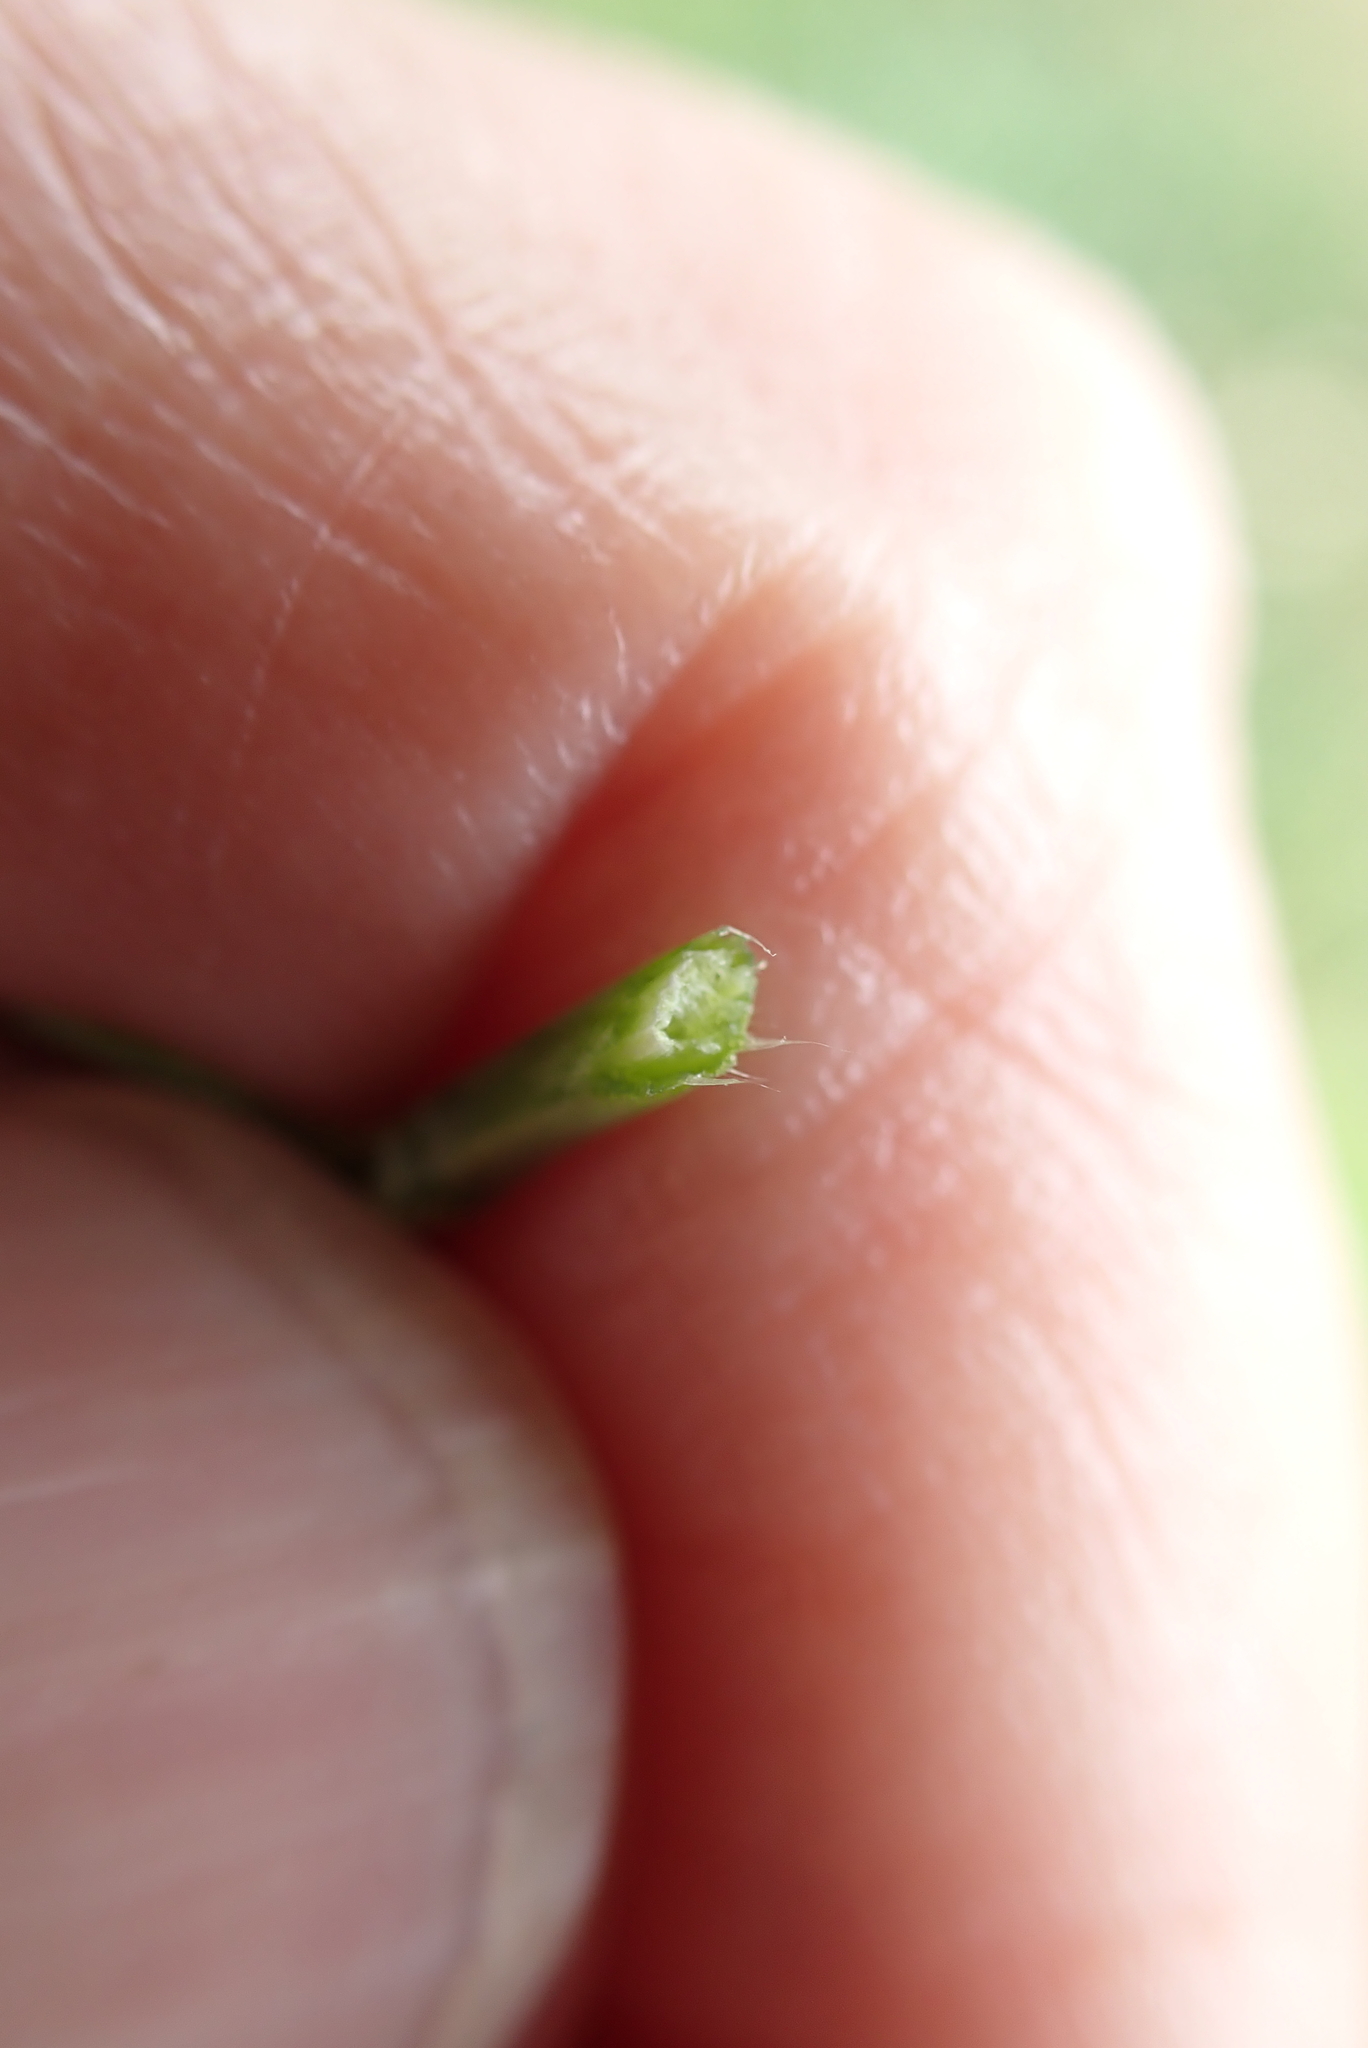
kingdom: Plantae
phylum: Tracheophyta
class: Magnoliopsida
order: Fabales
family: Fabaceae
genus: Lotus
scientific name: Lotus corniculatus
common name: Common bird's-foot-trefoil
